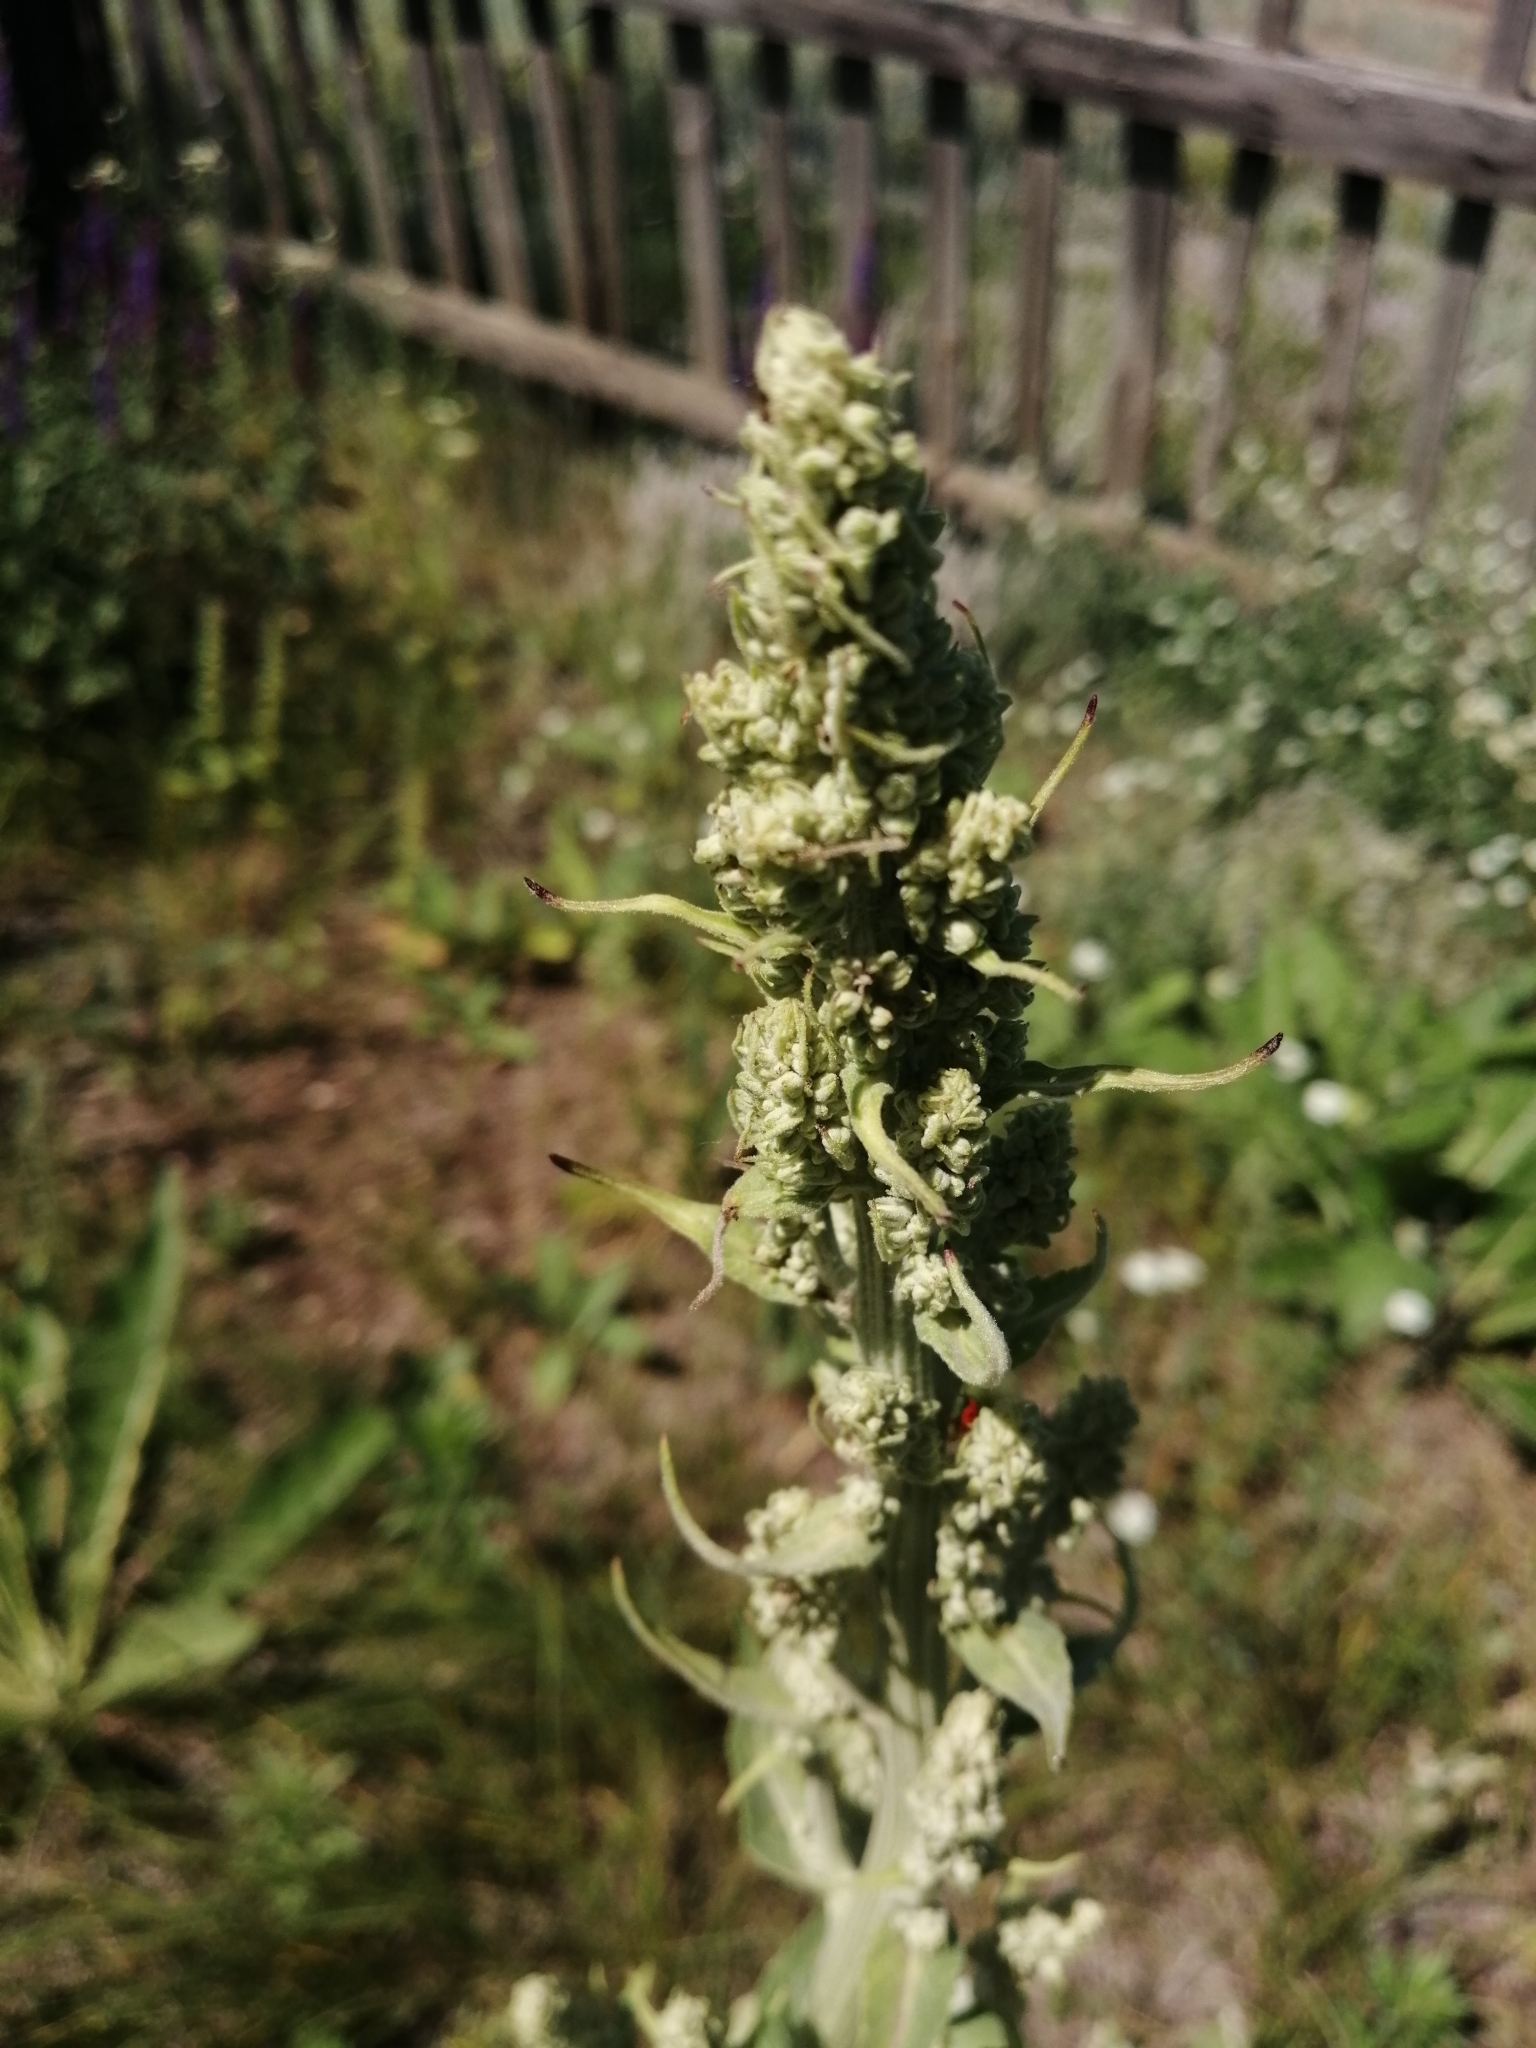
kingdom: Plantae
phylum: Tracheophyta
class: Magnoliopsida
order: Lamiales
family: Scrophulariaceae
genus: Verbascum
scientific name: Verbascum lychnitis
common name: White mullein
